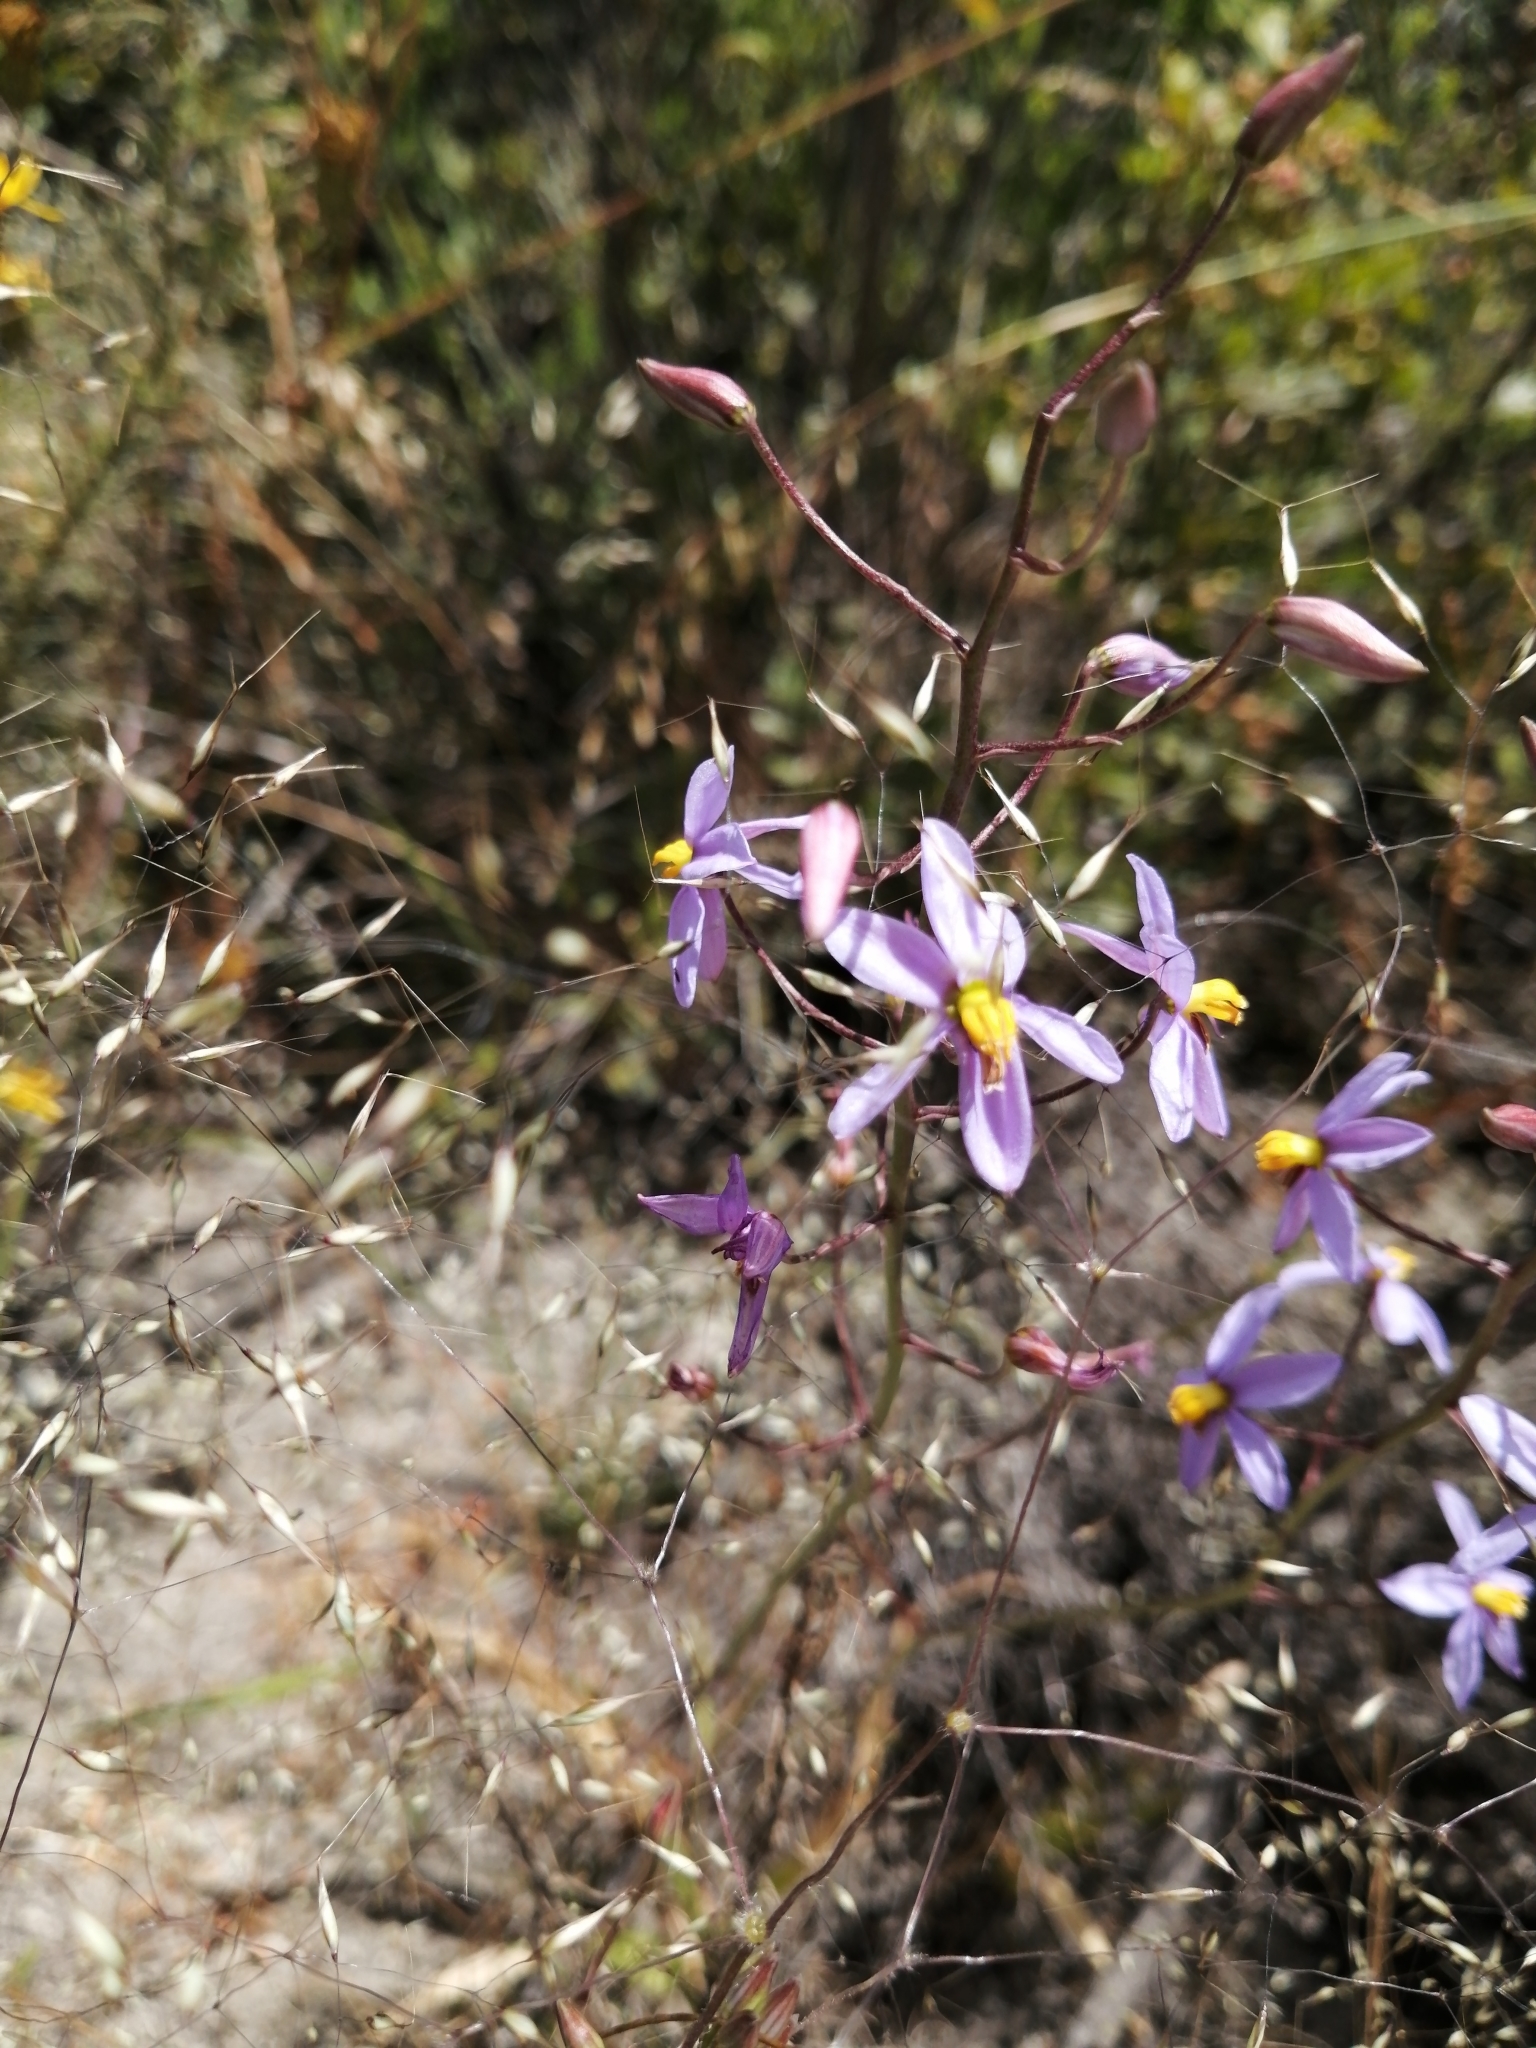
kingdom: Plantae
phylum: Tracheophyta
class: Liliopsida
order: Asparagales
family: Tecophilaeaceae
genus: Cyanella
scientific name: Cyanella hyacinthoides
